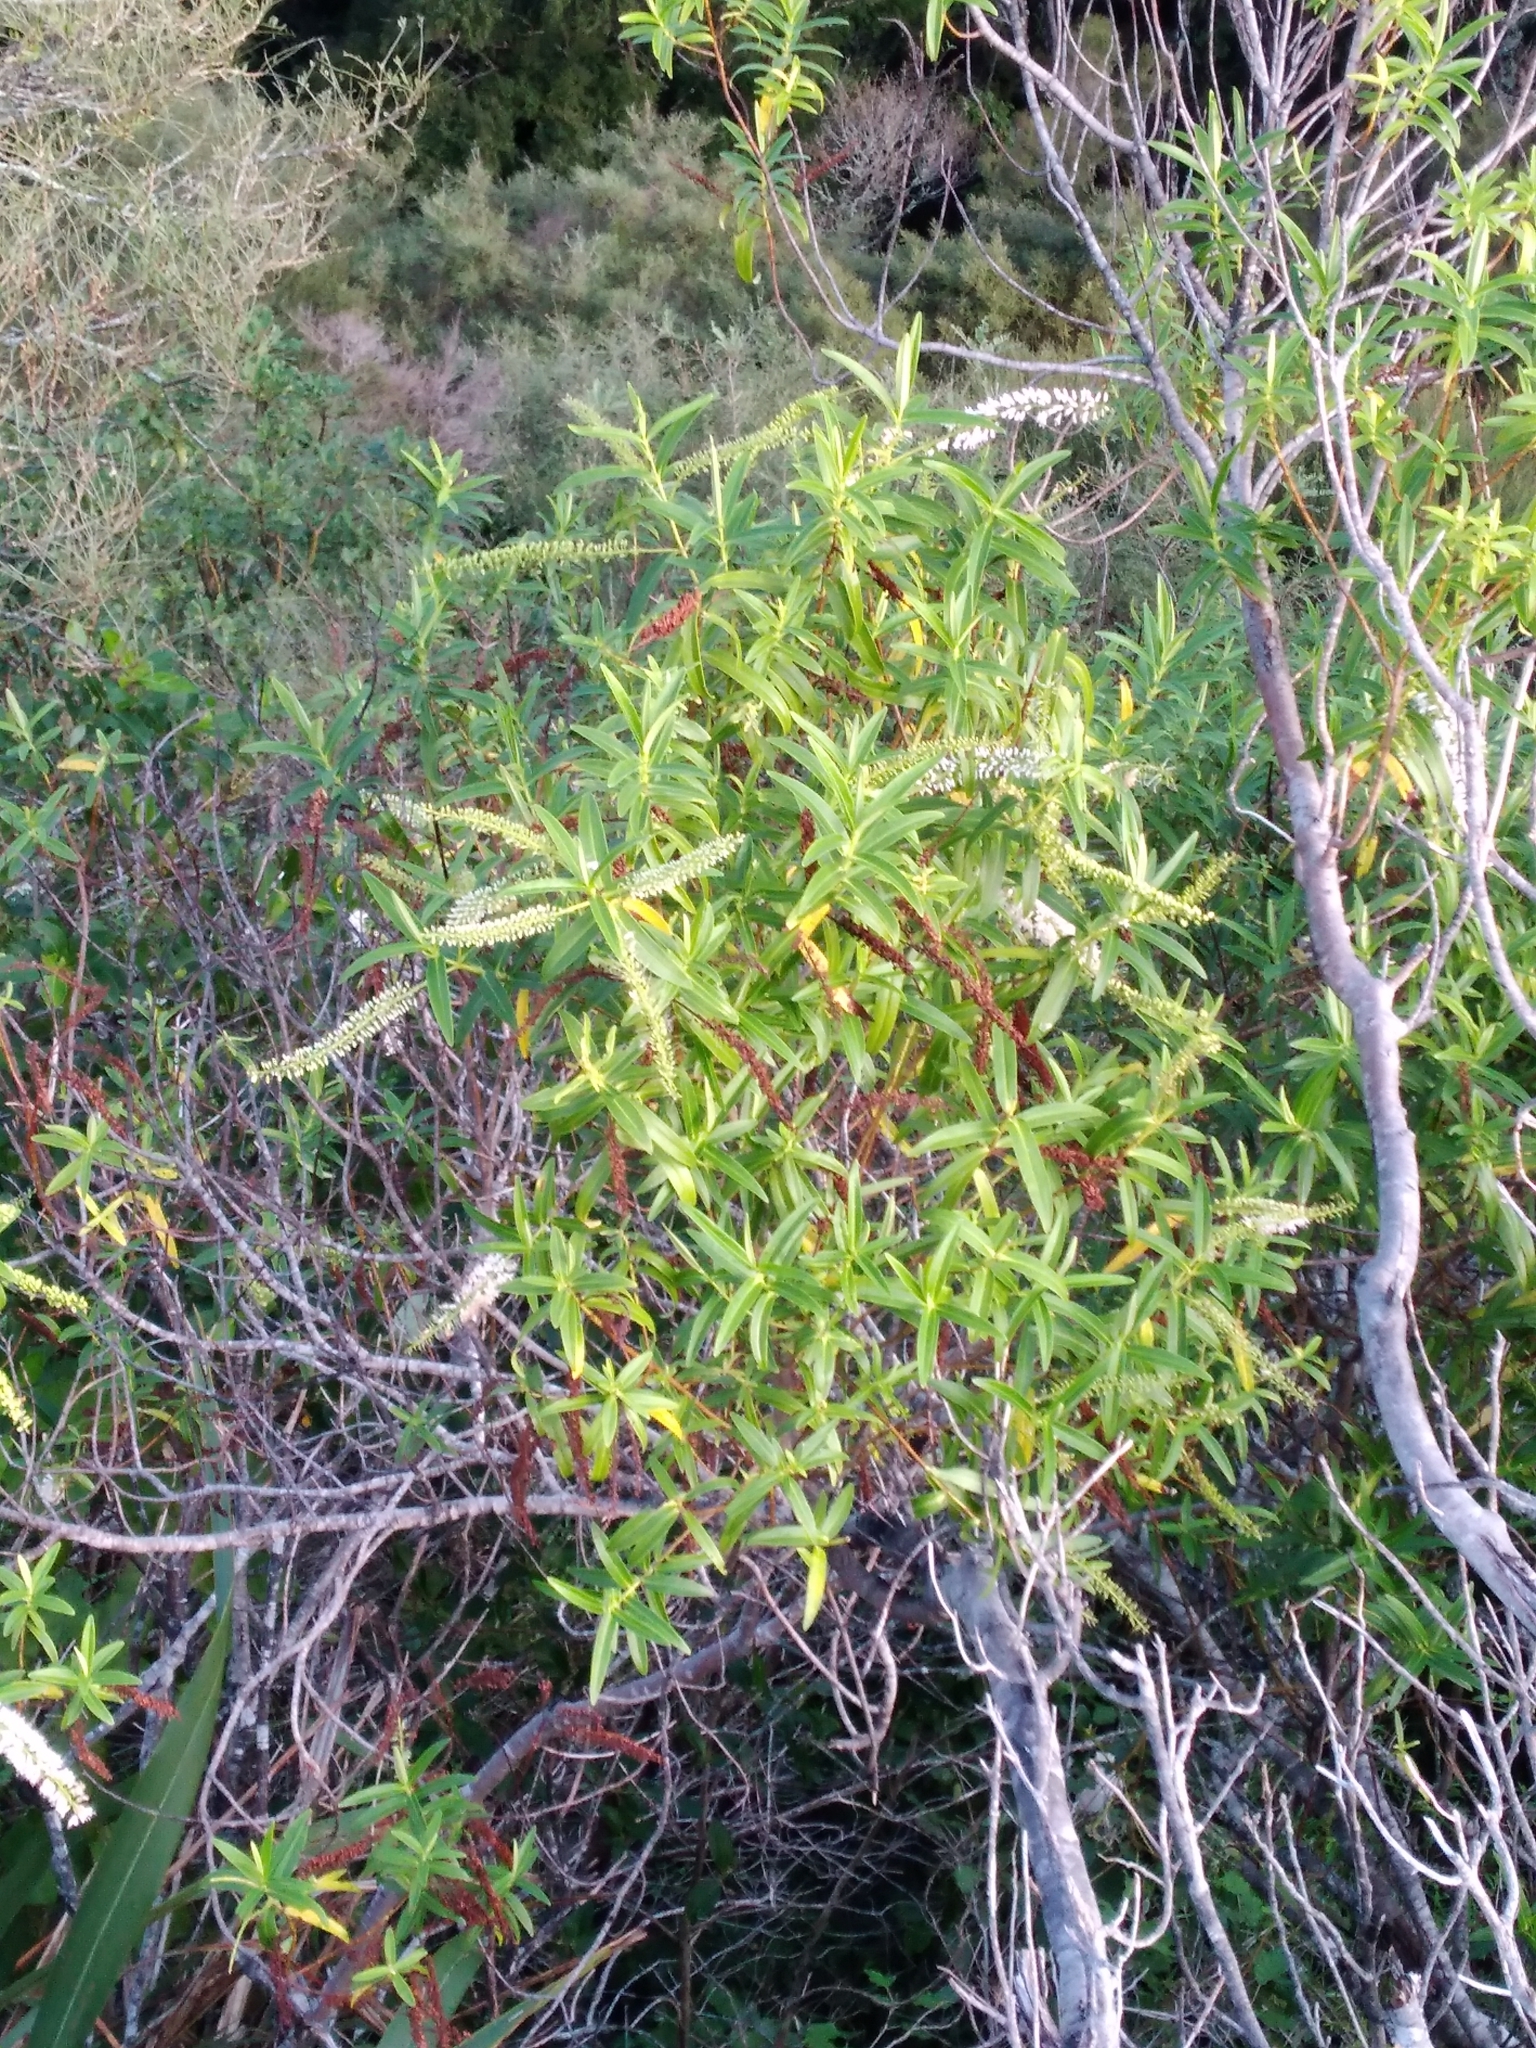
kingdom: Plantae
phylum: Tracheophyta
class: Magnoliopsida
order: Lamiales
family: Plantaginaceae
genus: Veronica
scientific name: Veronica stricta
